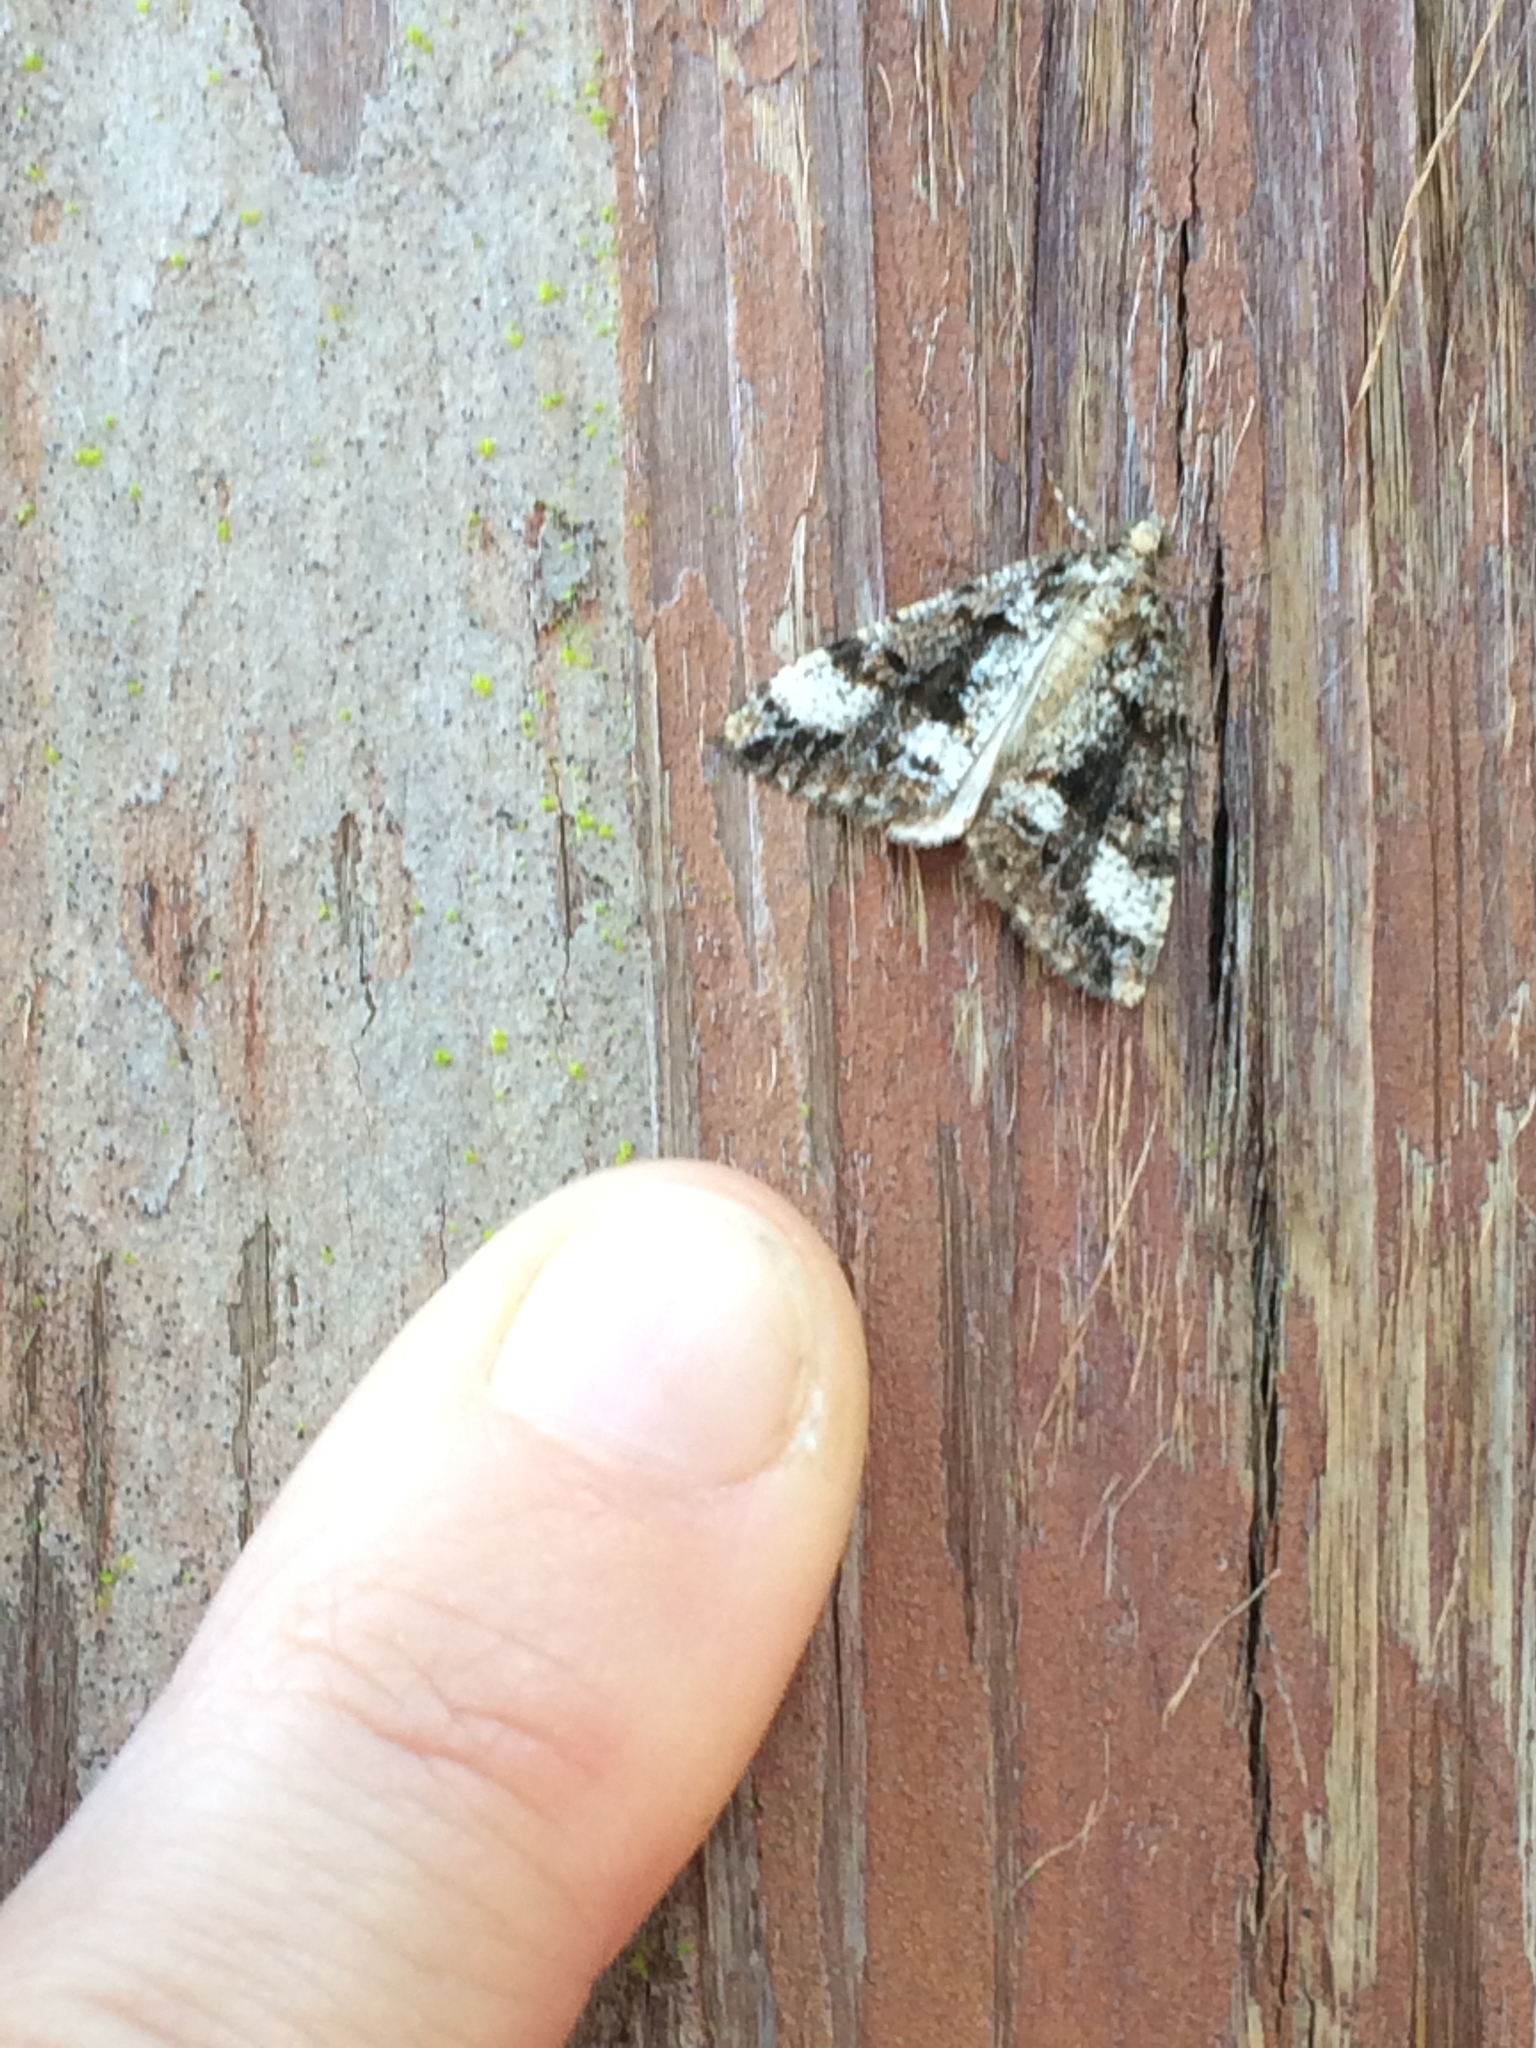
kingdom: Animalia
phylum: Arthropoda
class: Insecta
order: Lepidoptera
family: Geometridae
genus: Pseudocoremia
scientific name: Pseudocoremia leucelaea
